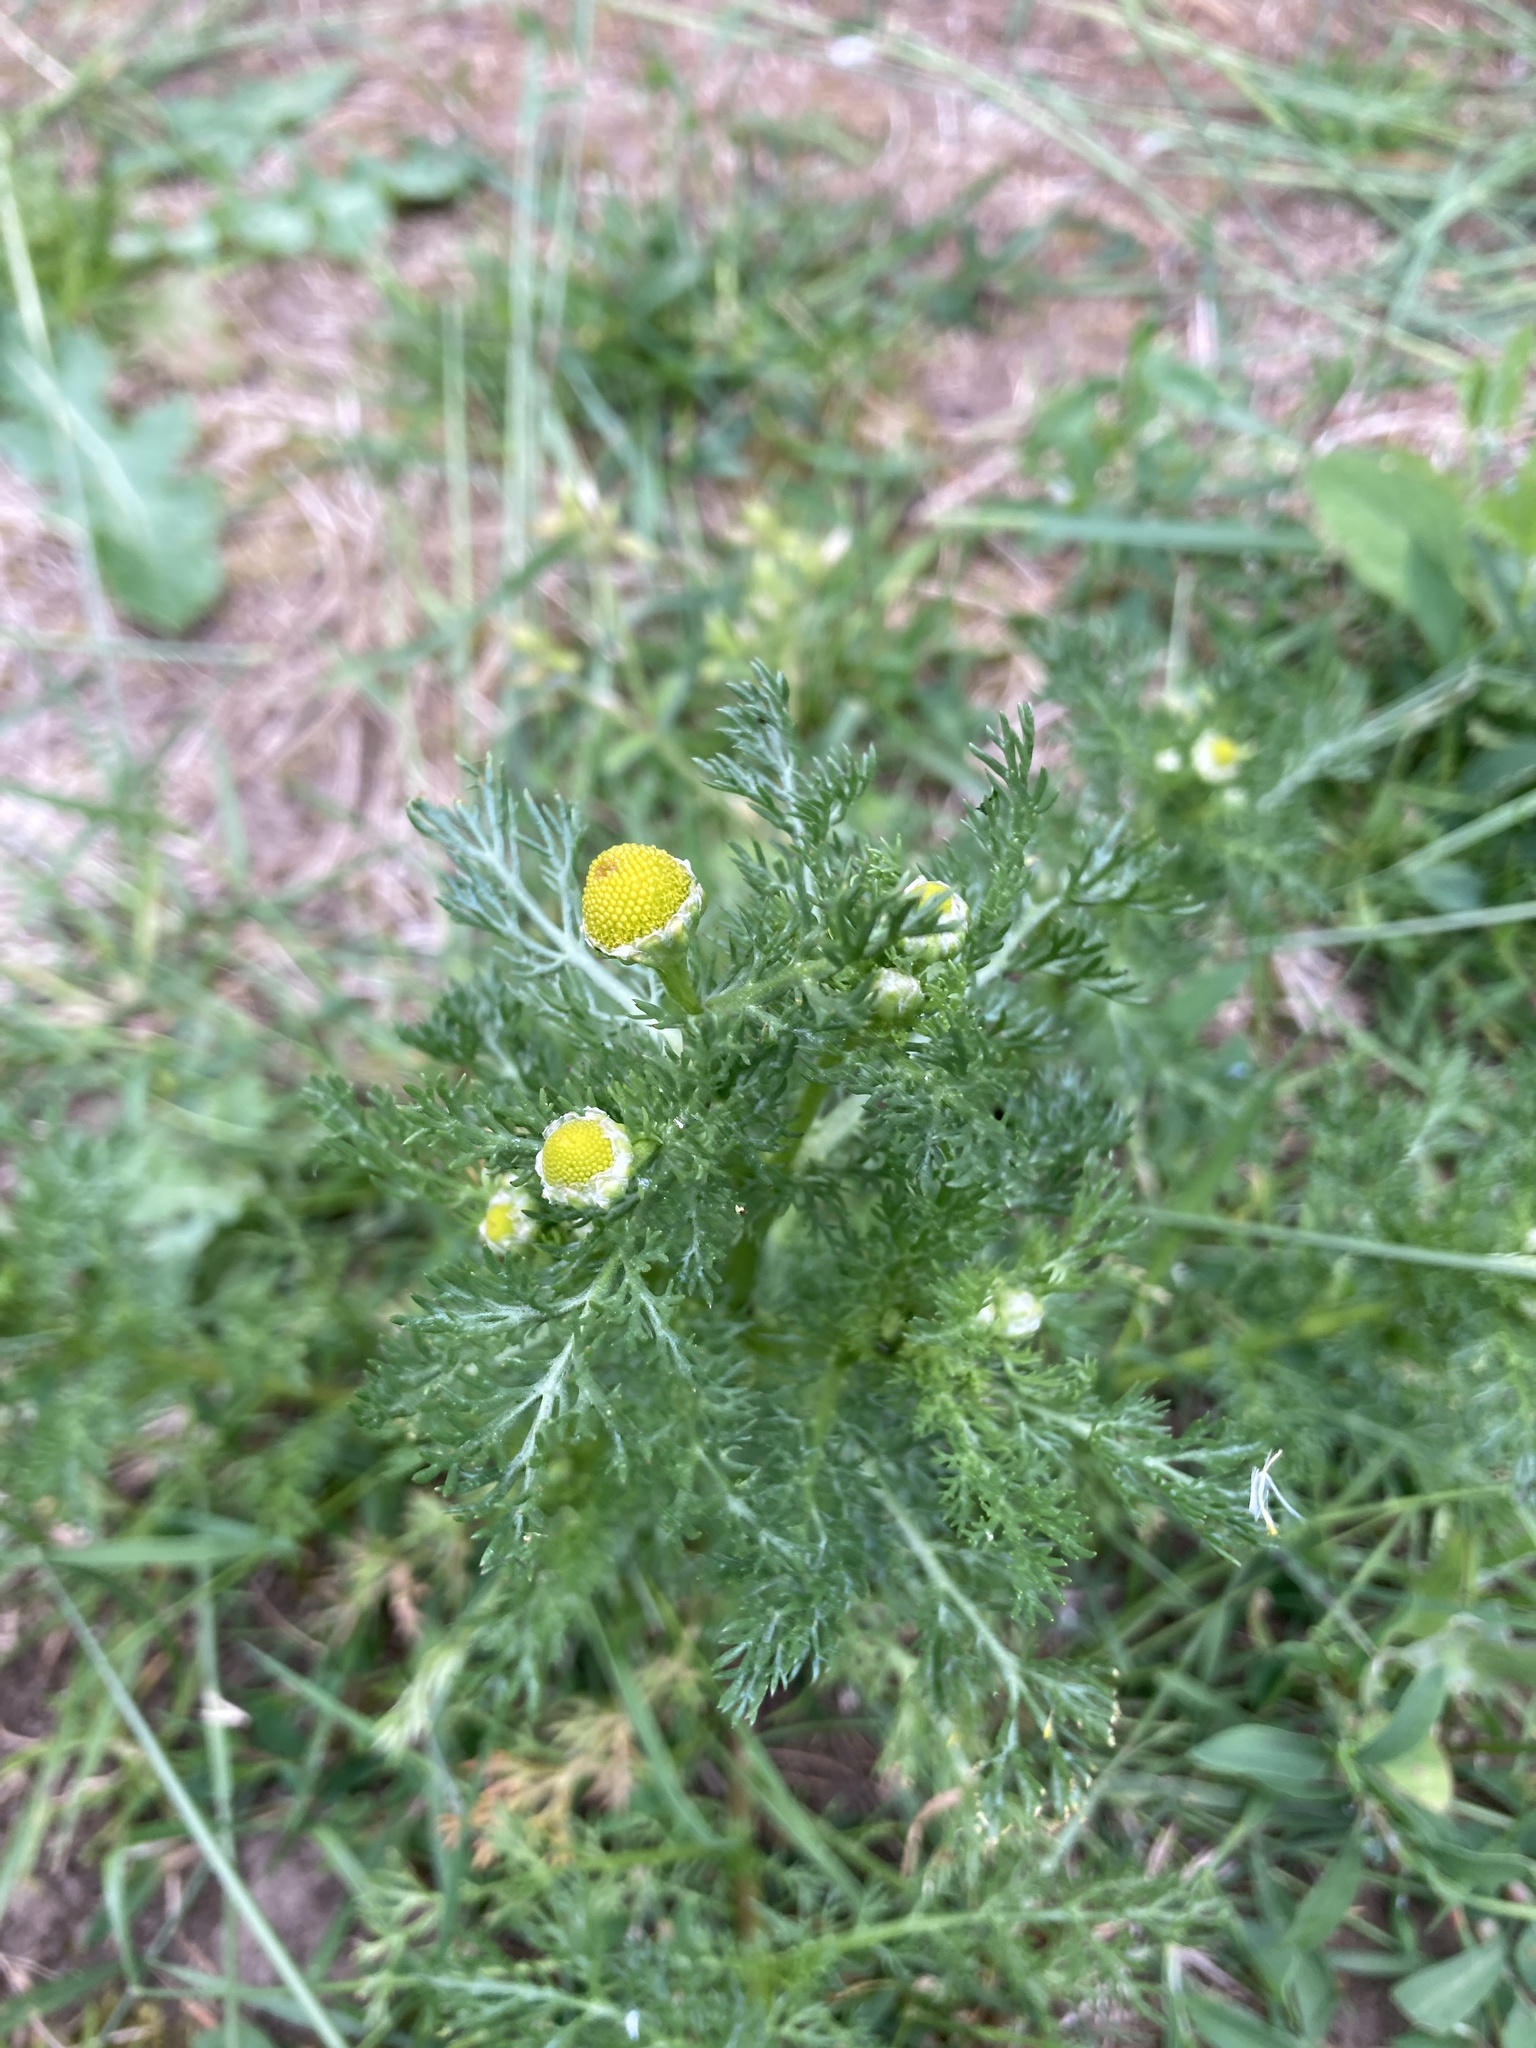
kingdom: Plantae
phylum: Tracheophyta
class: Magnoliopsida
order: Asterales
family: Asteraceae
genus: Matricaria
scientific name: Matricaria discoidea
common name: Disc mayweed
